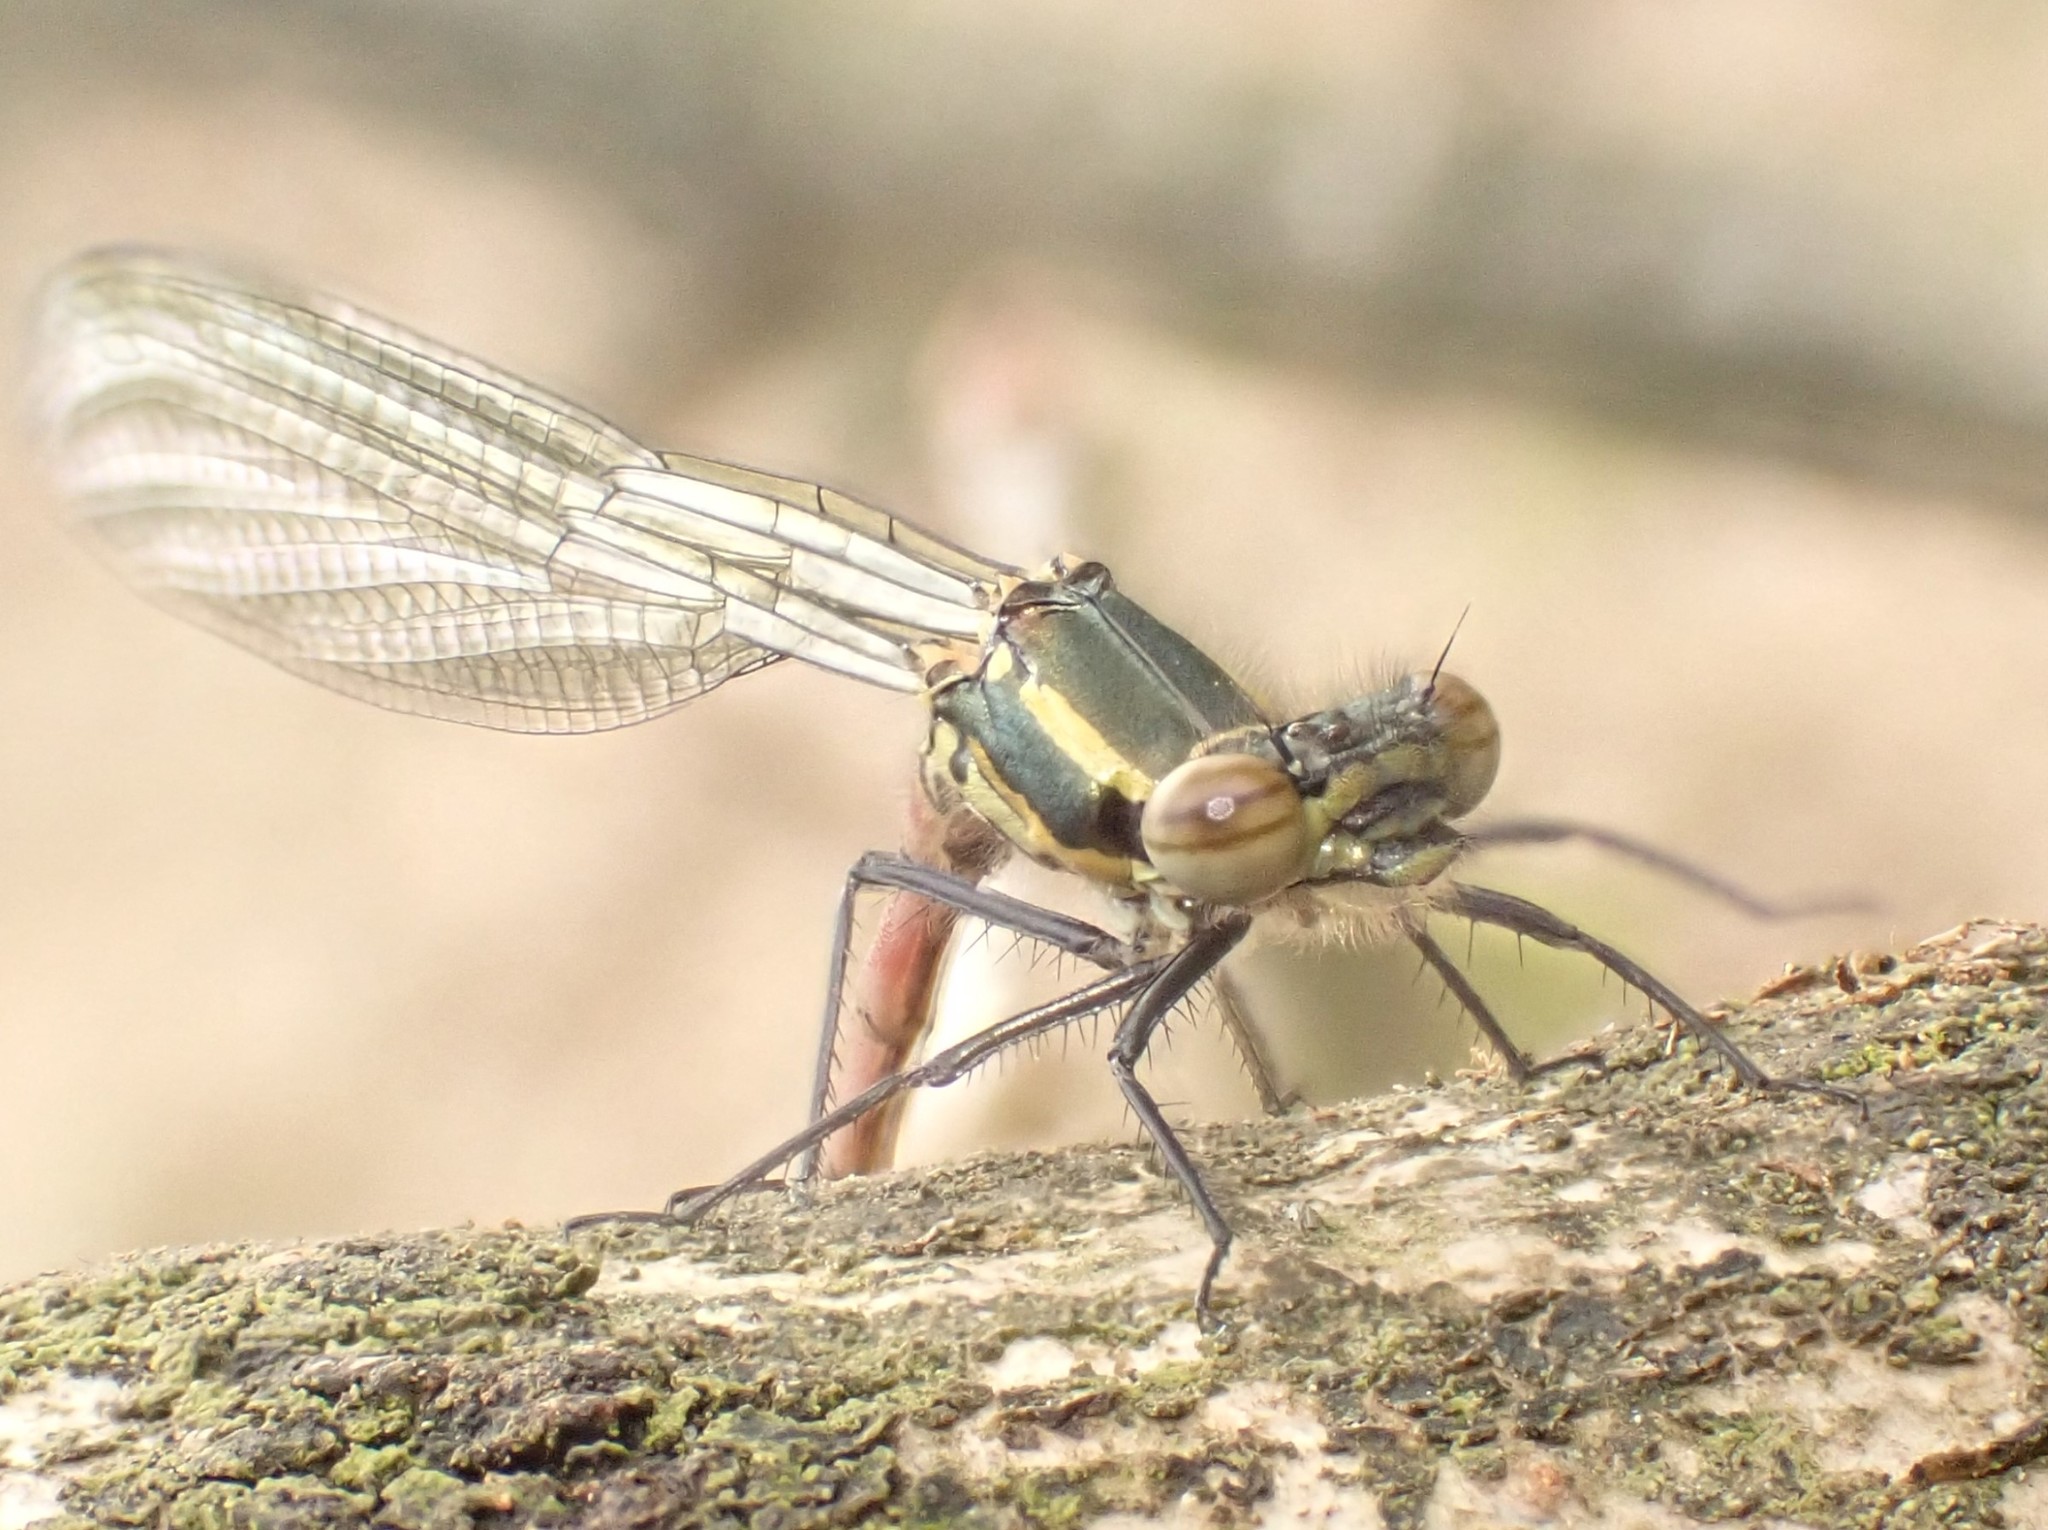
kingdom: Animalia
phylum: Arthropoda
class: Insecta
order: Odonata
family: Coenagrionidae
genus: Pyrrhosoma
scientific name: Pyrrhosoma nymphula
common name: Large red damsel
